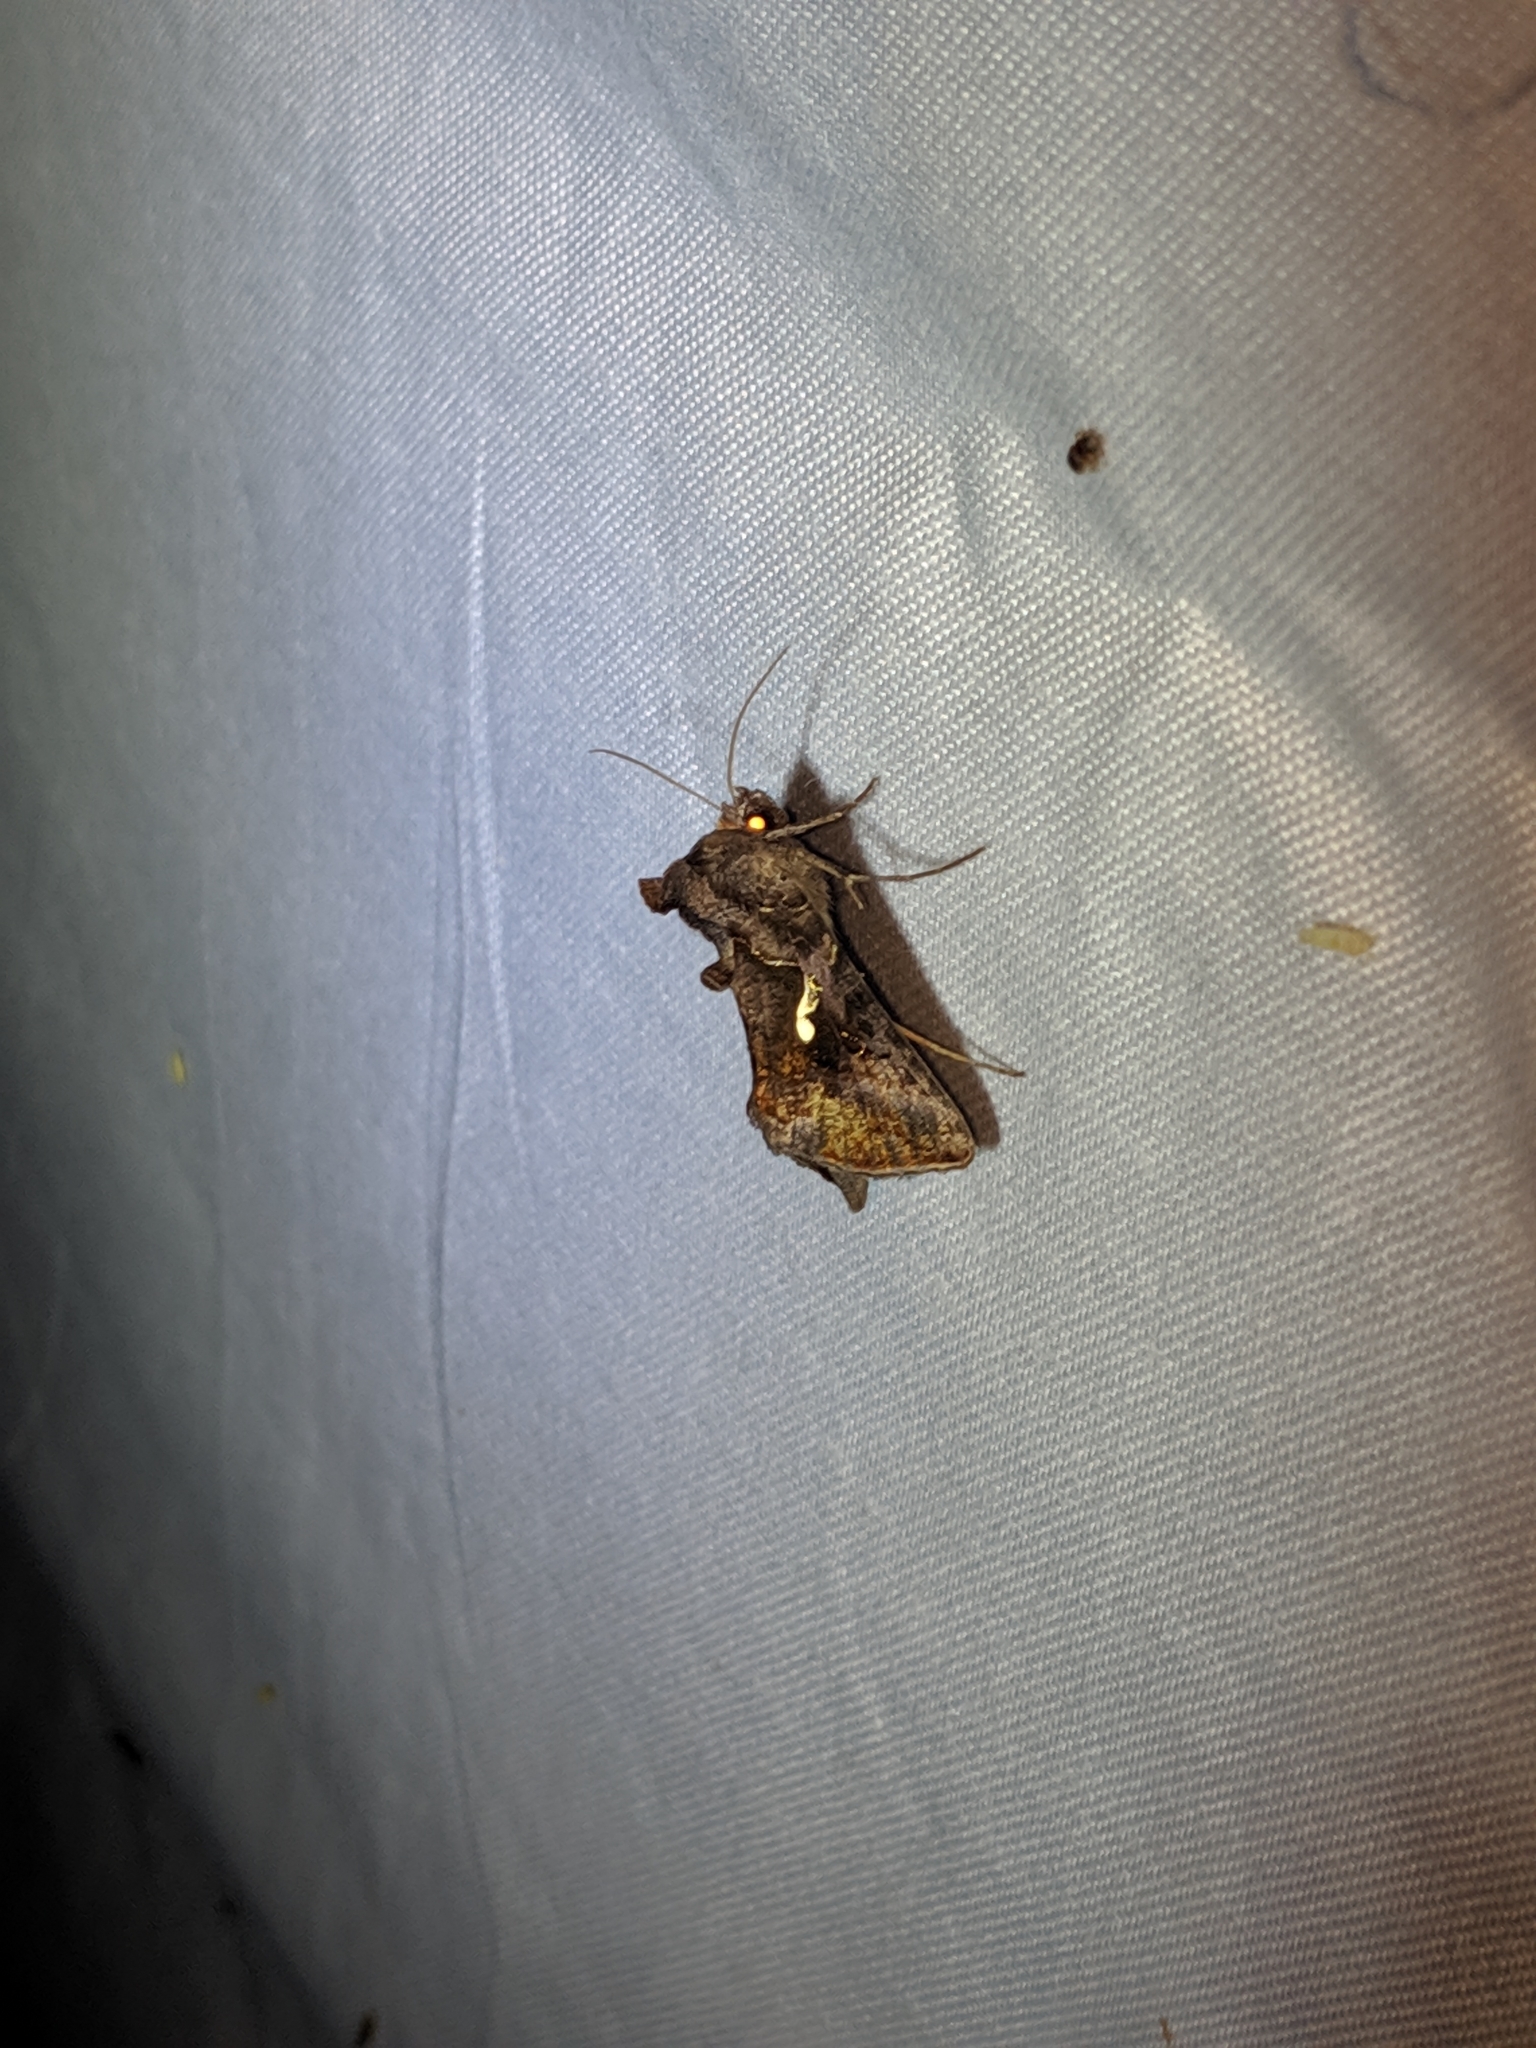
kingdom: Animalia
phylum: Arthropoda
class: Insecta
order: Lepidoptera
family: Noctuidae
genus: Autographa
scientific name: Autographa precationis
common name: Common looper moth
